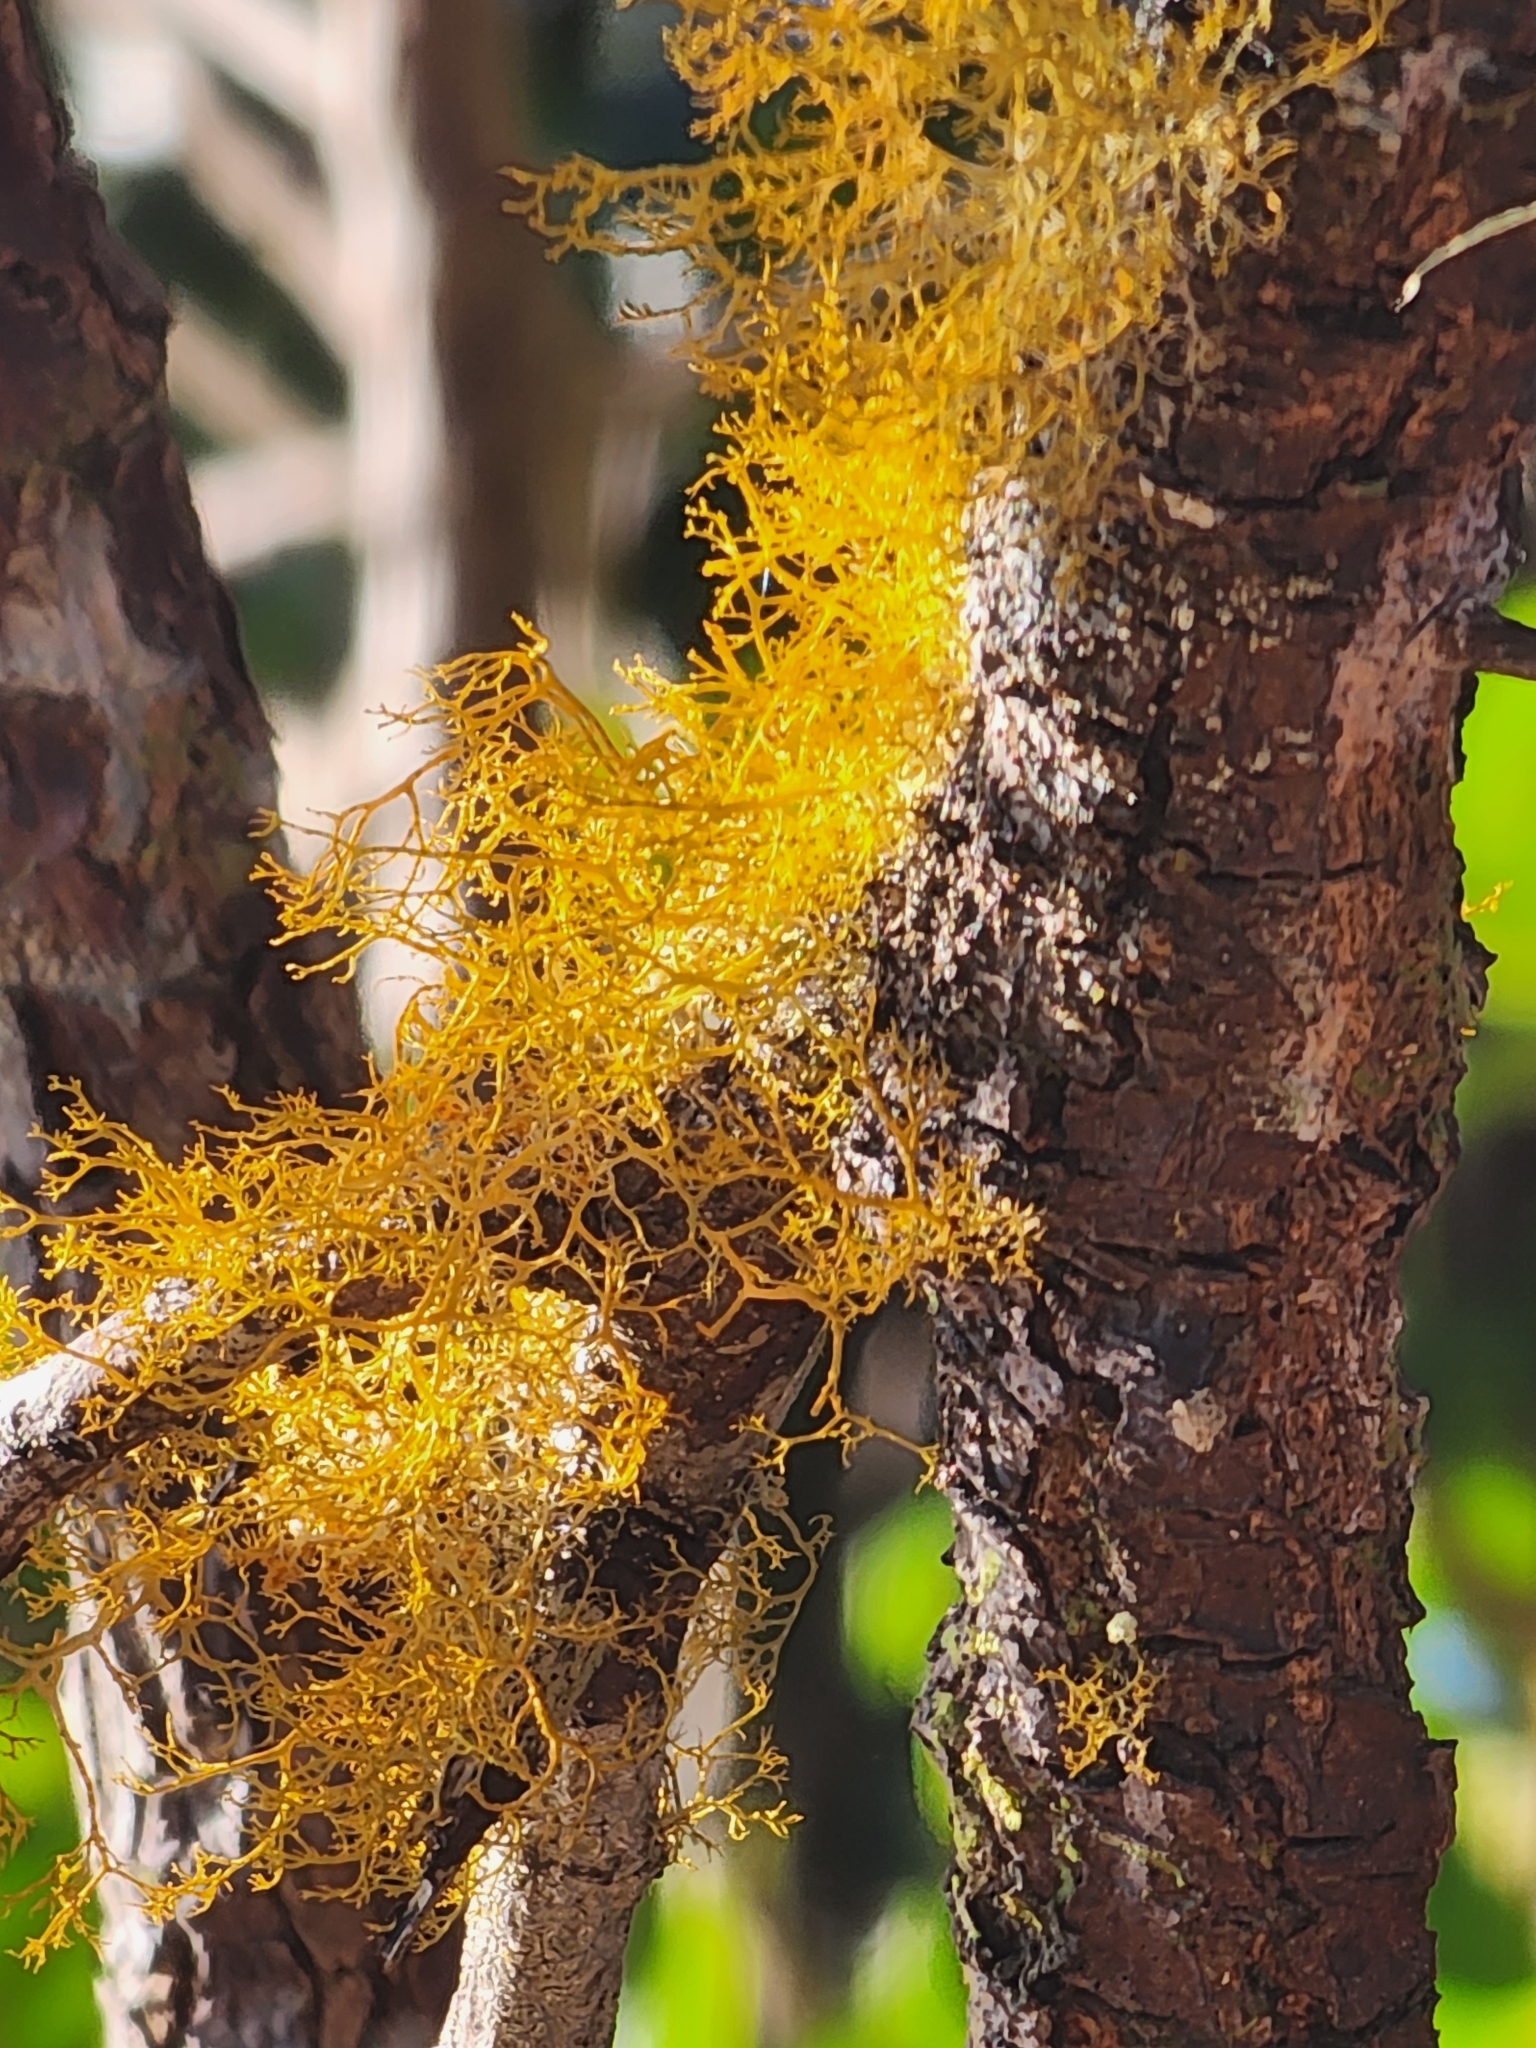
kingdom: Fungi
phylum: Ascomycota
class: Lecanoromycetes
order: Teloschistales
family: Teloschistaceae
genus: Teloschistes
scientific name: Teloschistes flavicans
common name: Golden hair-lichen
